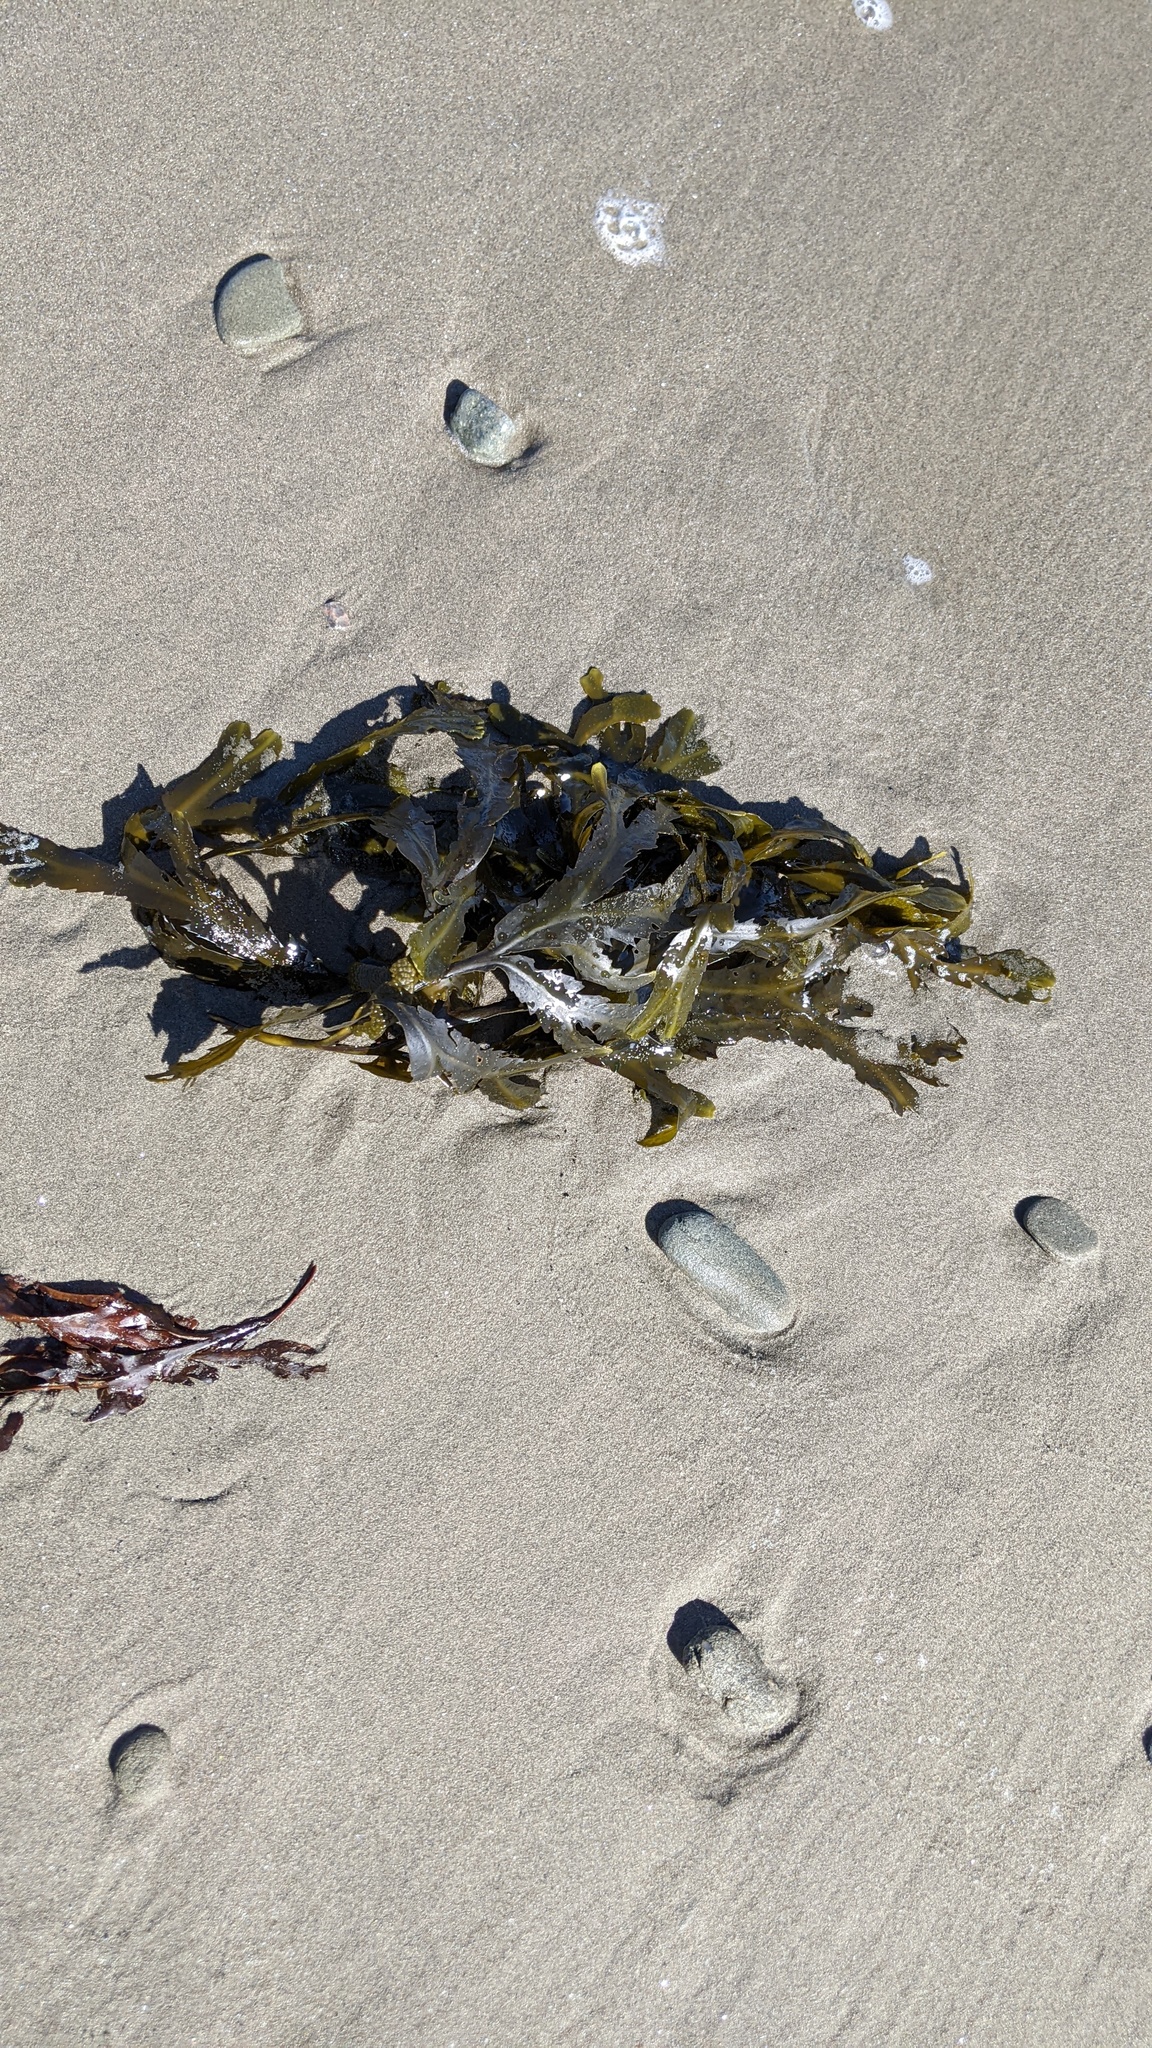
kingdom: Chromista
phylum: Ochrophyta
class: Phaeophyceae
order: Fucales
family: Fucaceae
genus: Fucus
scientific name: Fucus serratus
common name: Toothed wrack
